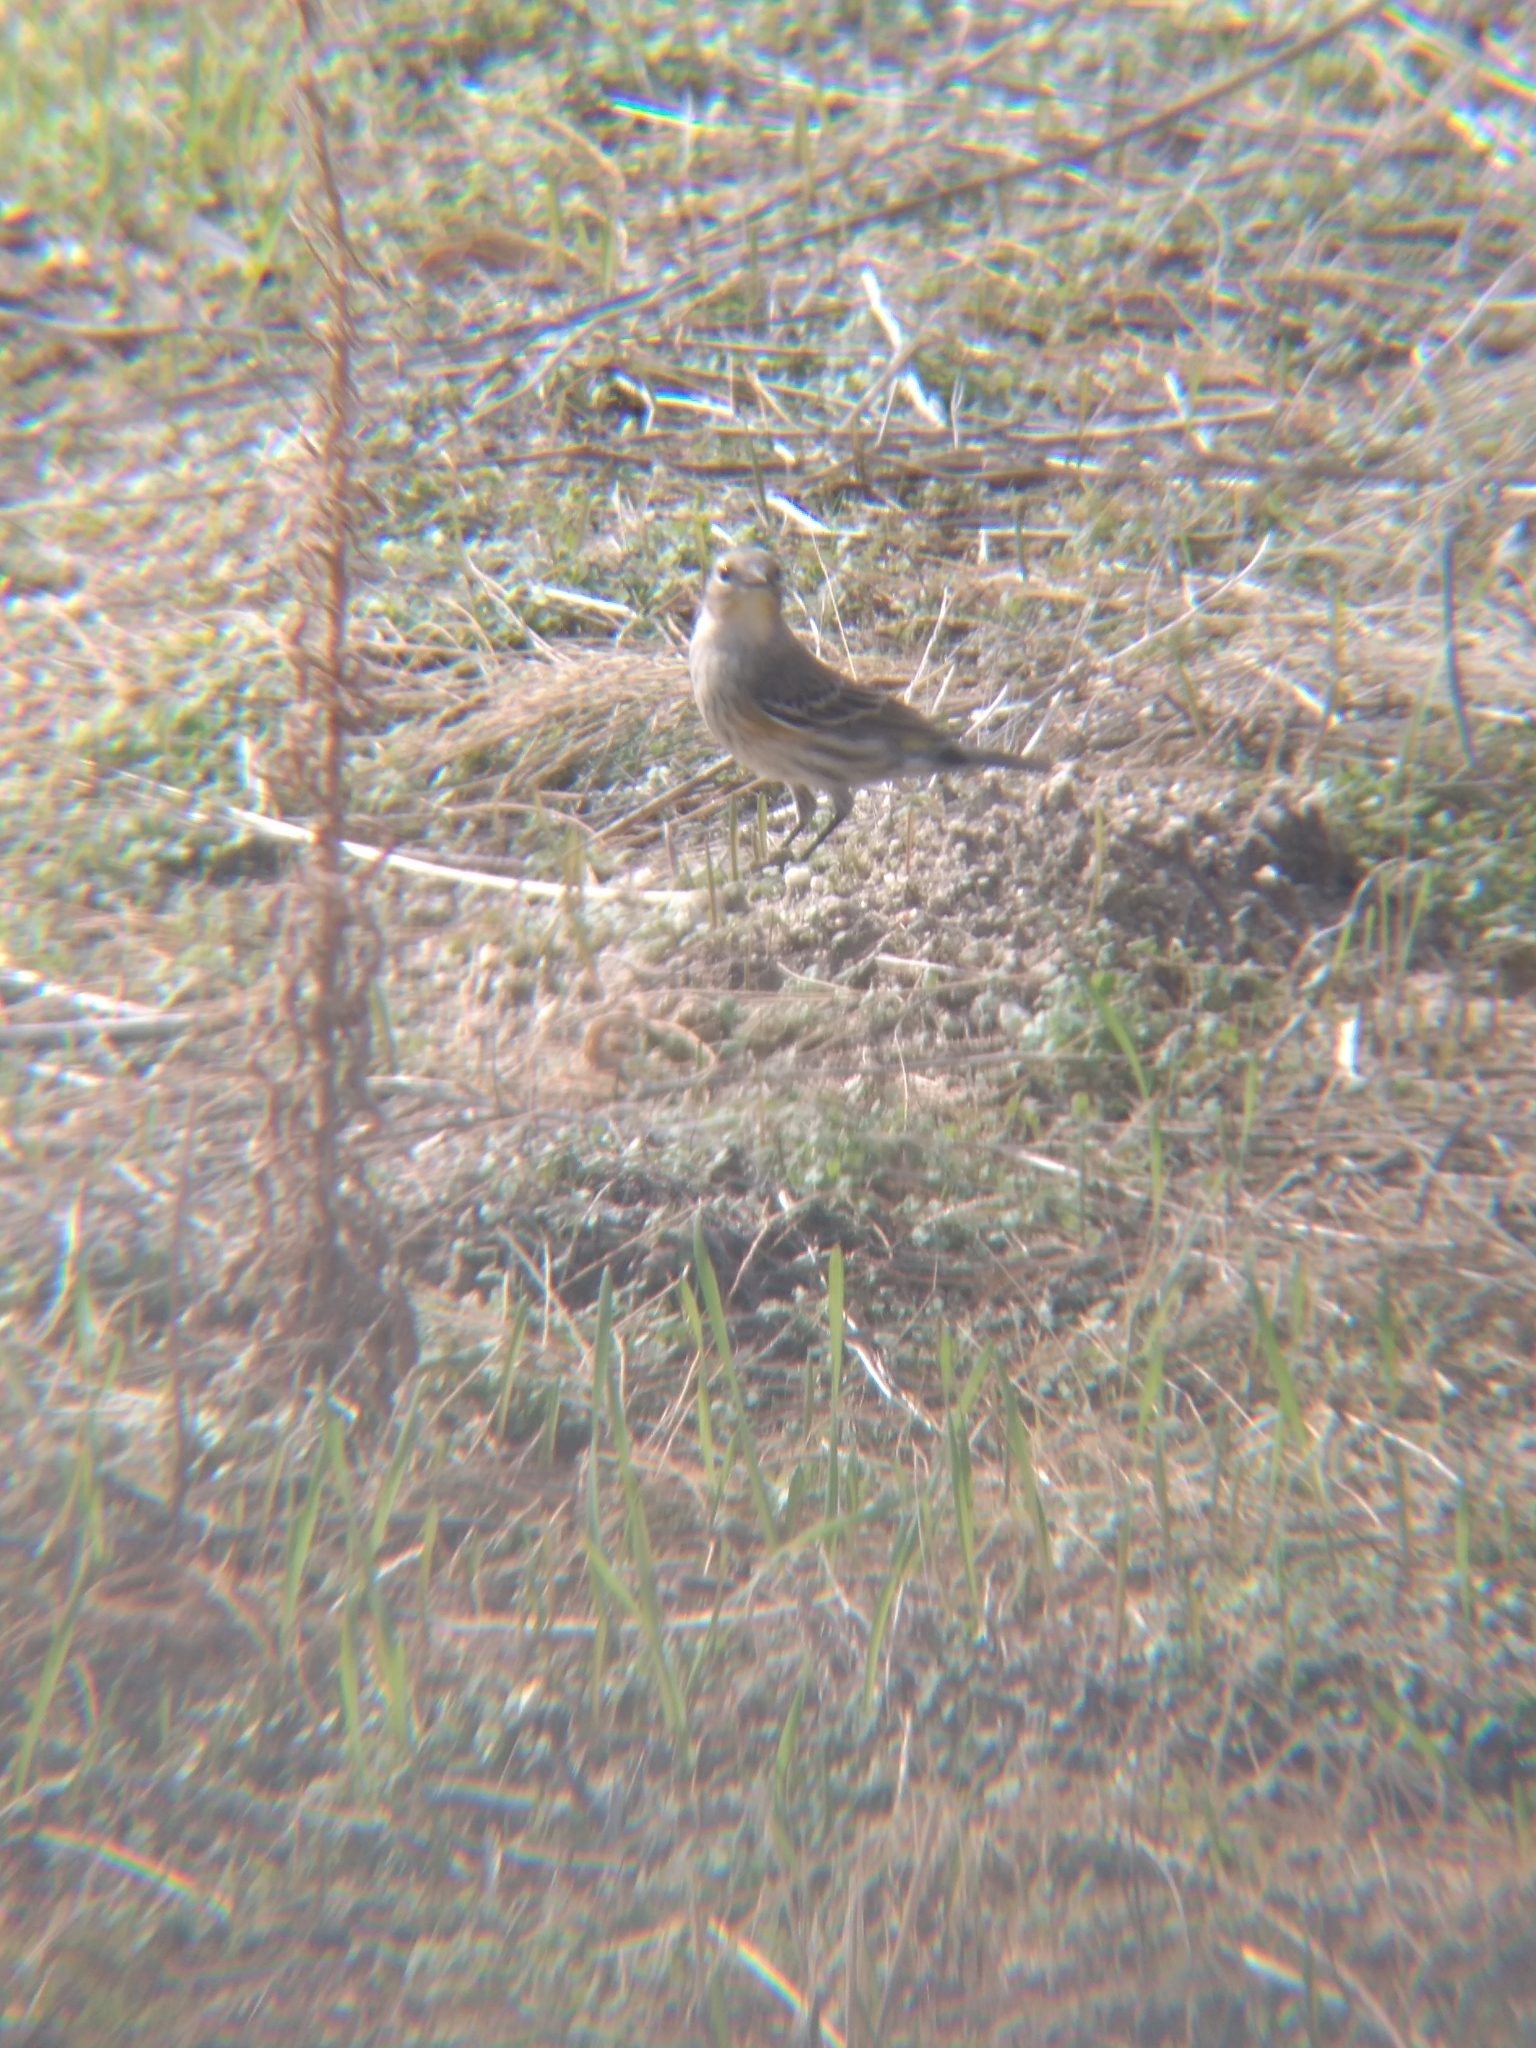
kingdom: Animalia
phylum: Chordata
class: Aves
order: Passeriformes
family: Parulidae
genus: Setophaga
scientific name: Setophaga coronata
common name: Myrtle warbler
